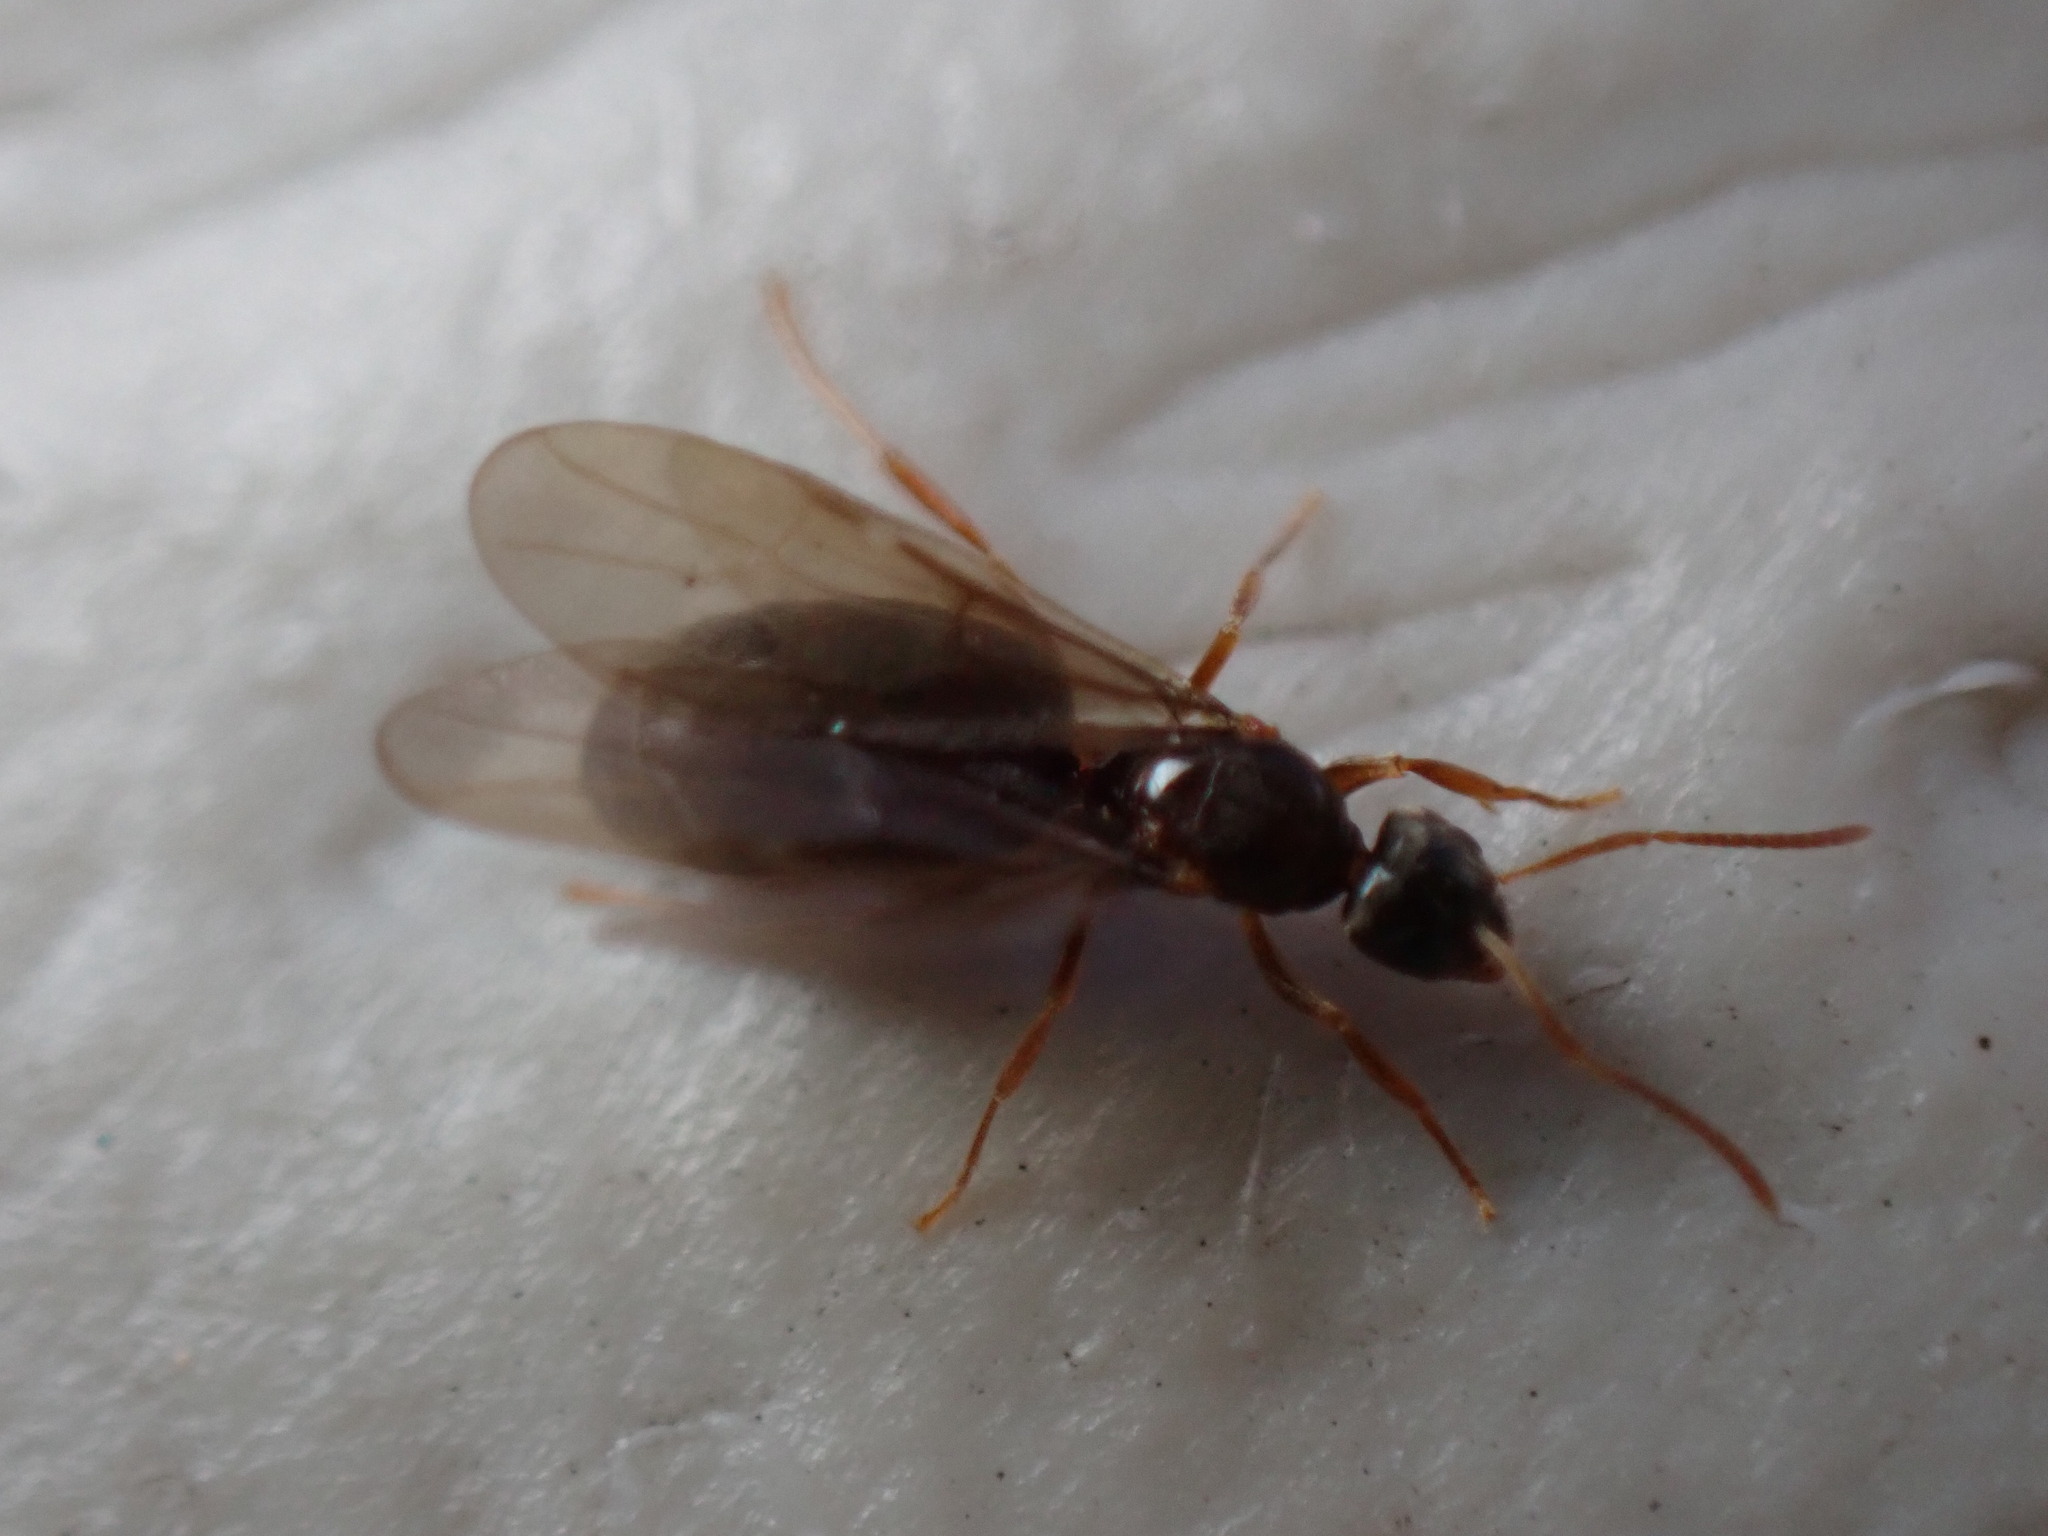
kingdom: Animalia
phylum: Arthropoda
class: Insecta
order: Hymenoptera
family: Formicidae
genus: Paratrechina
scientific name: Paratrechina flavipes
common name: Eastern asian formicine ant
